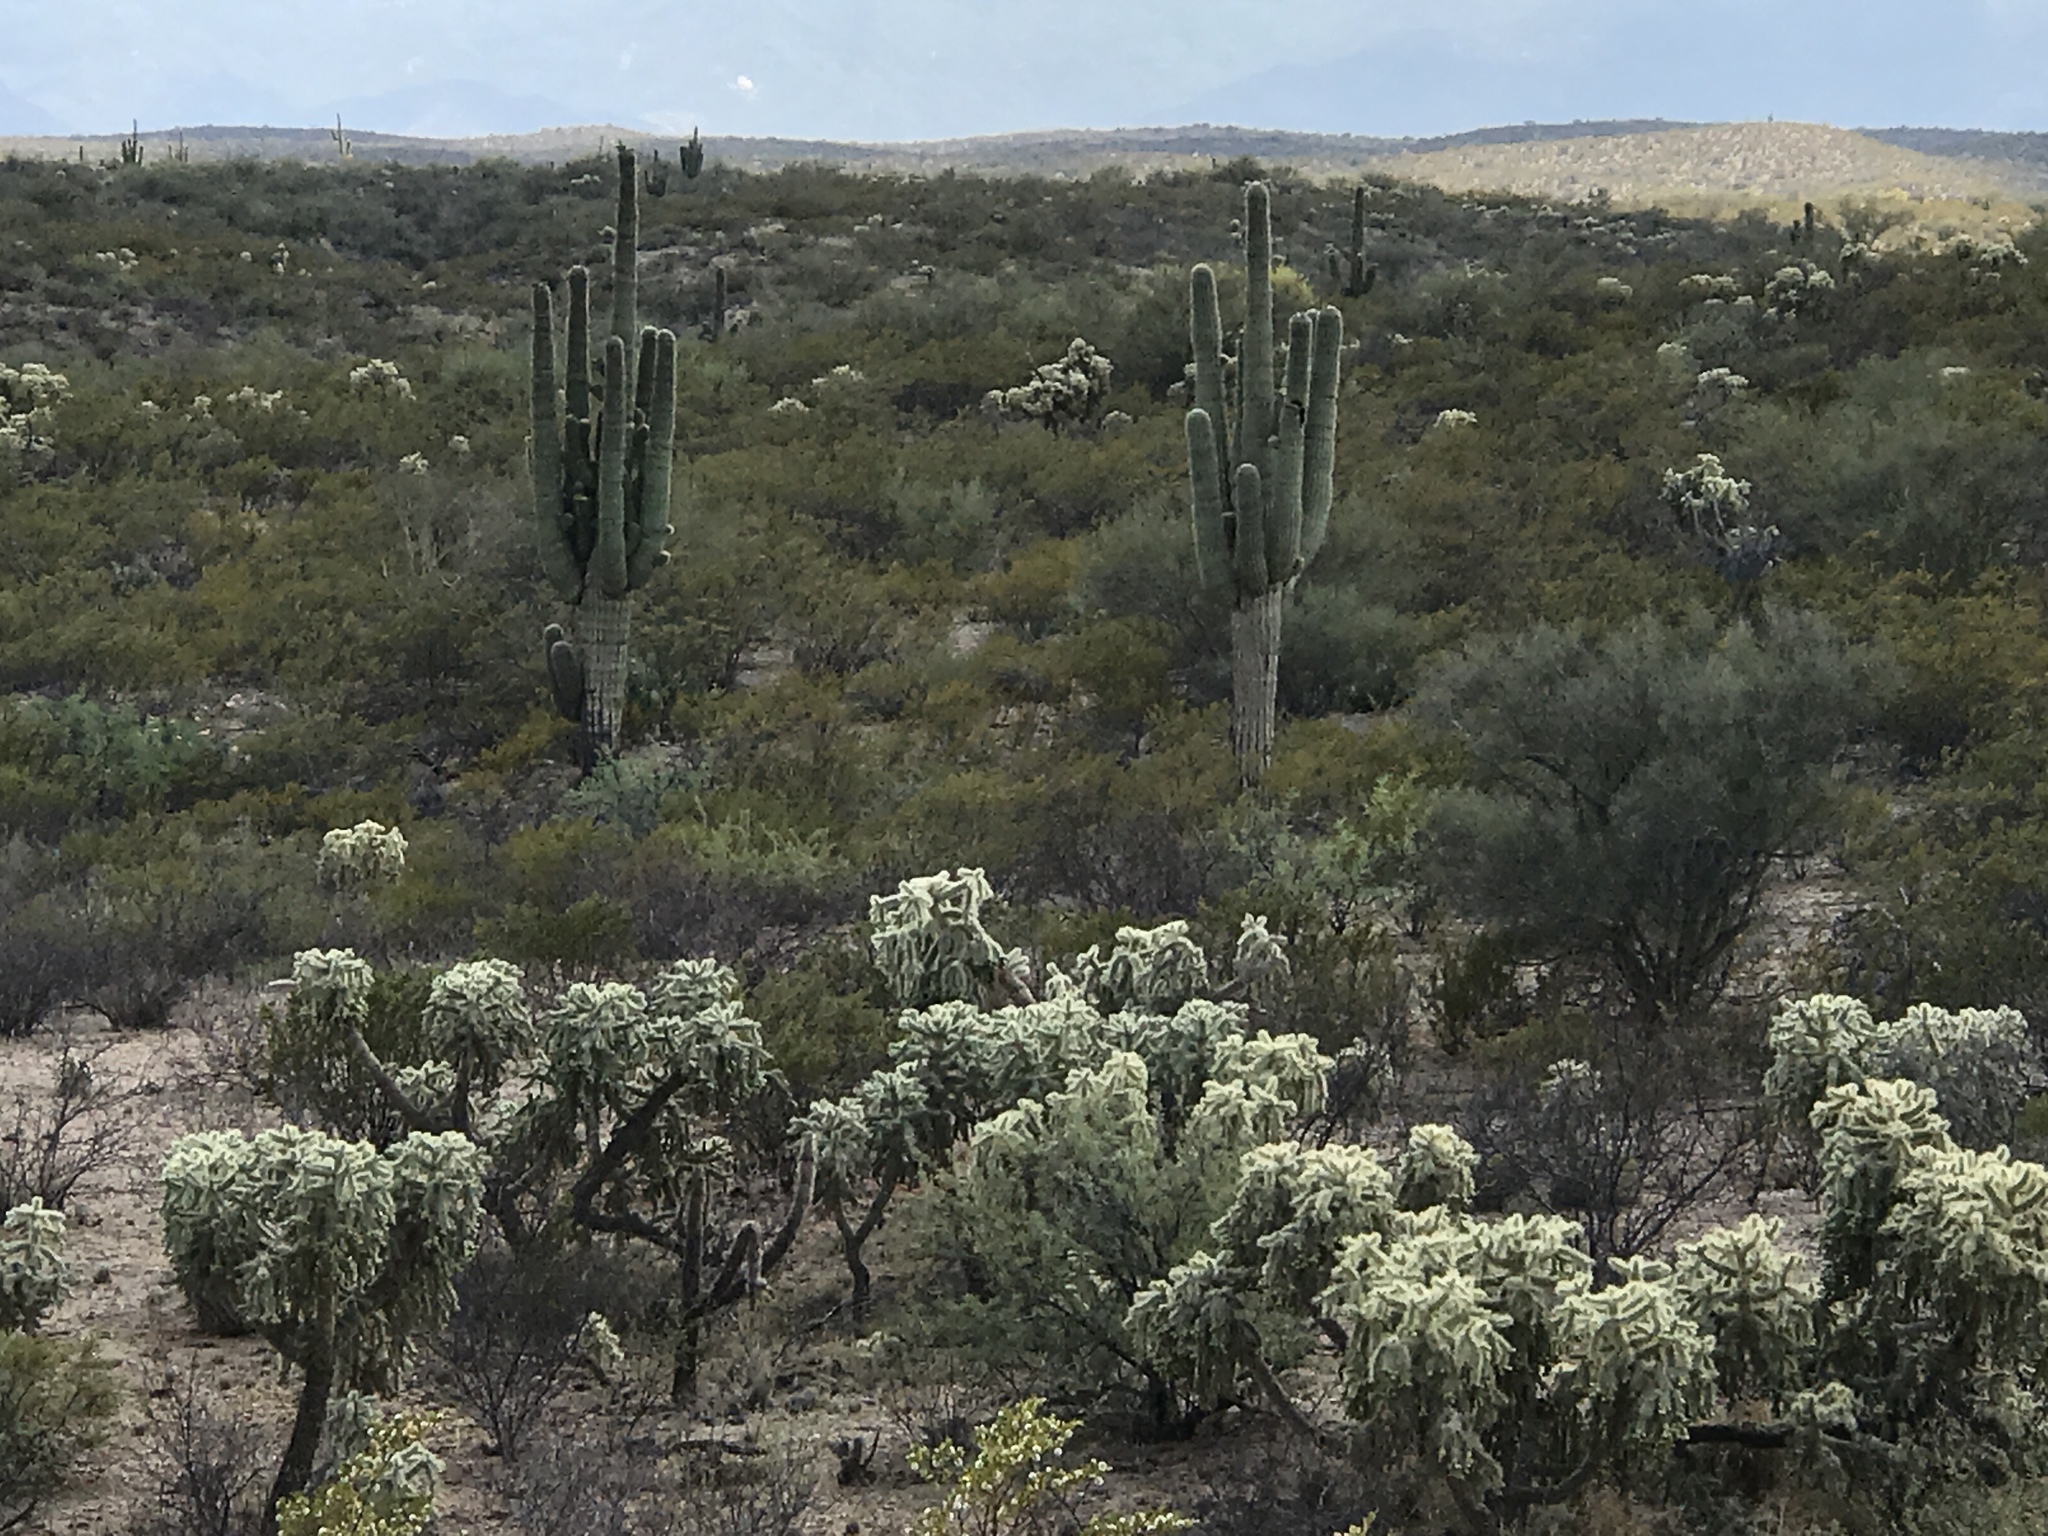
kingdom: Plantae
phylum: Tracheophyta
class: Magnoliopsida
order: Caryophyllales
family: Cactaceae
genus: Carnegiea
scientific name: Carnegiea gigantea
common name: Saguaro
